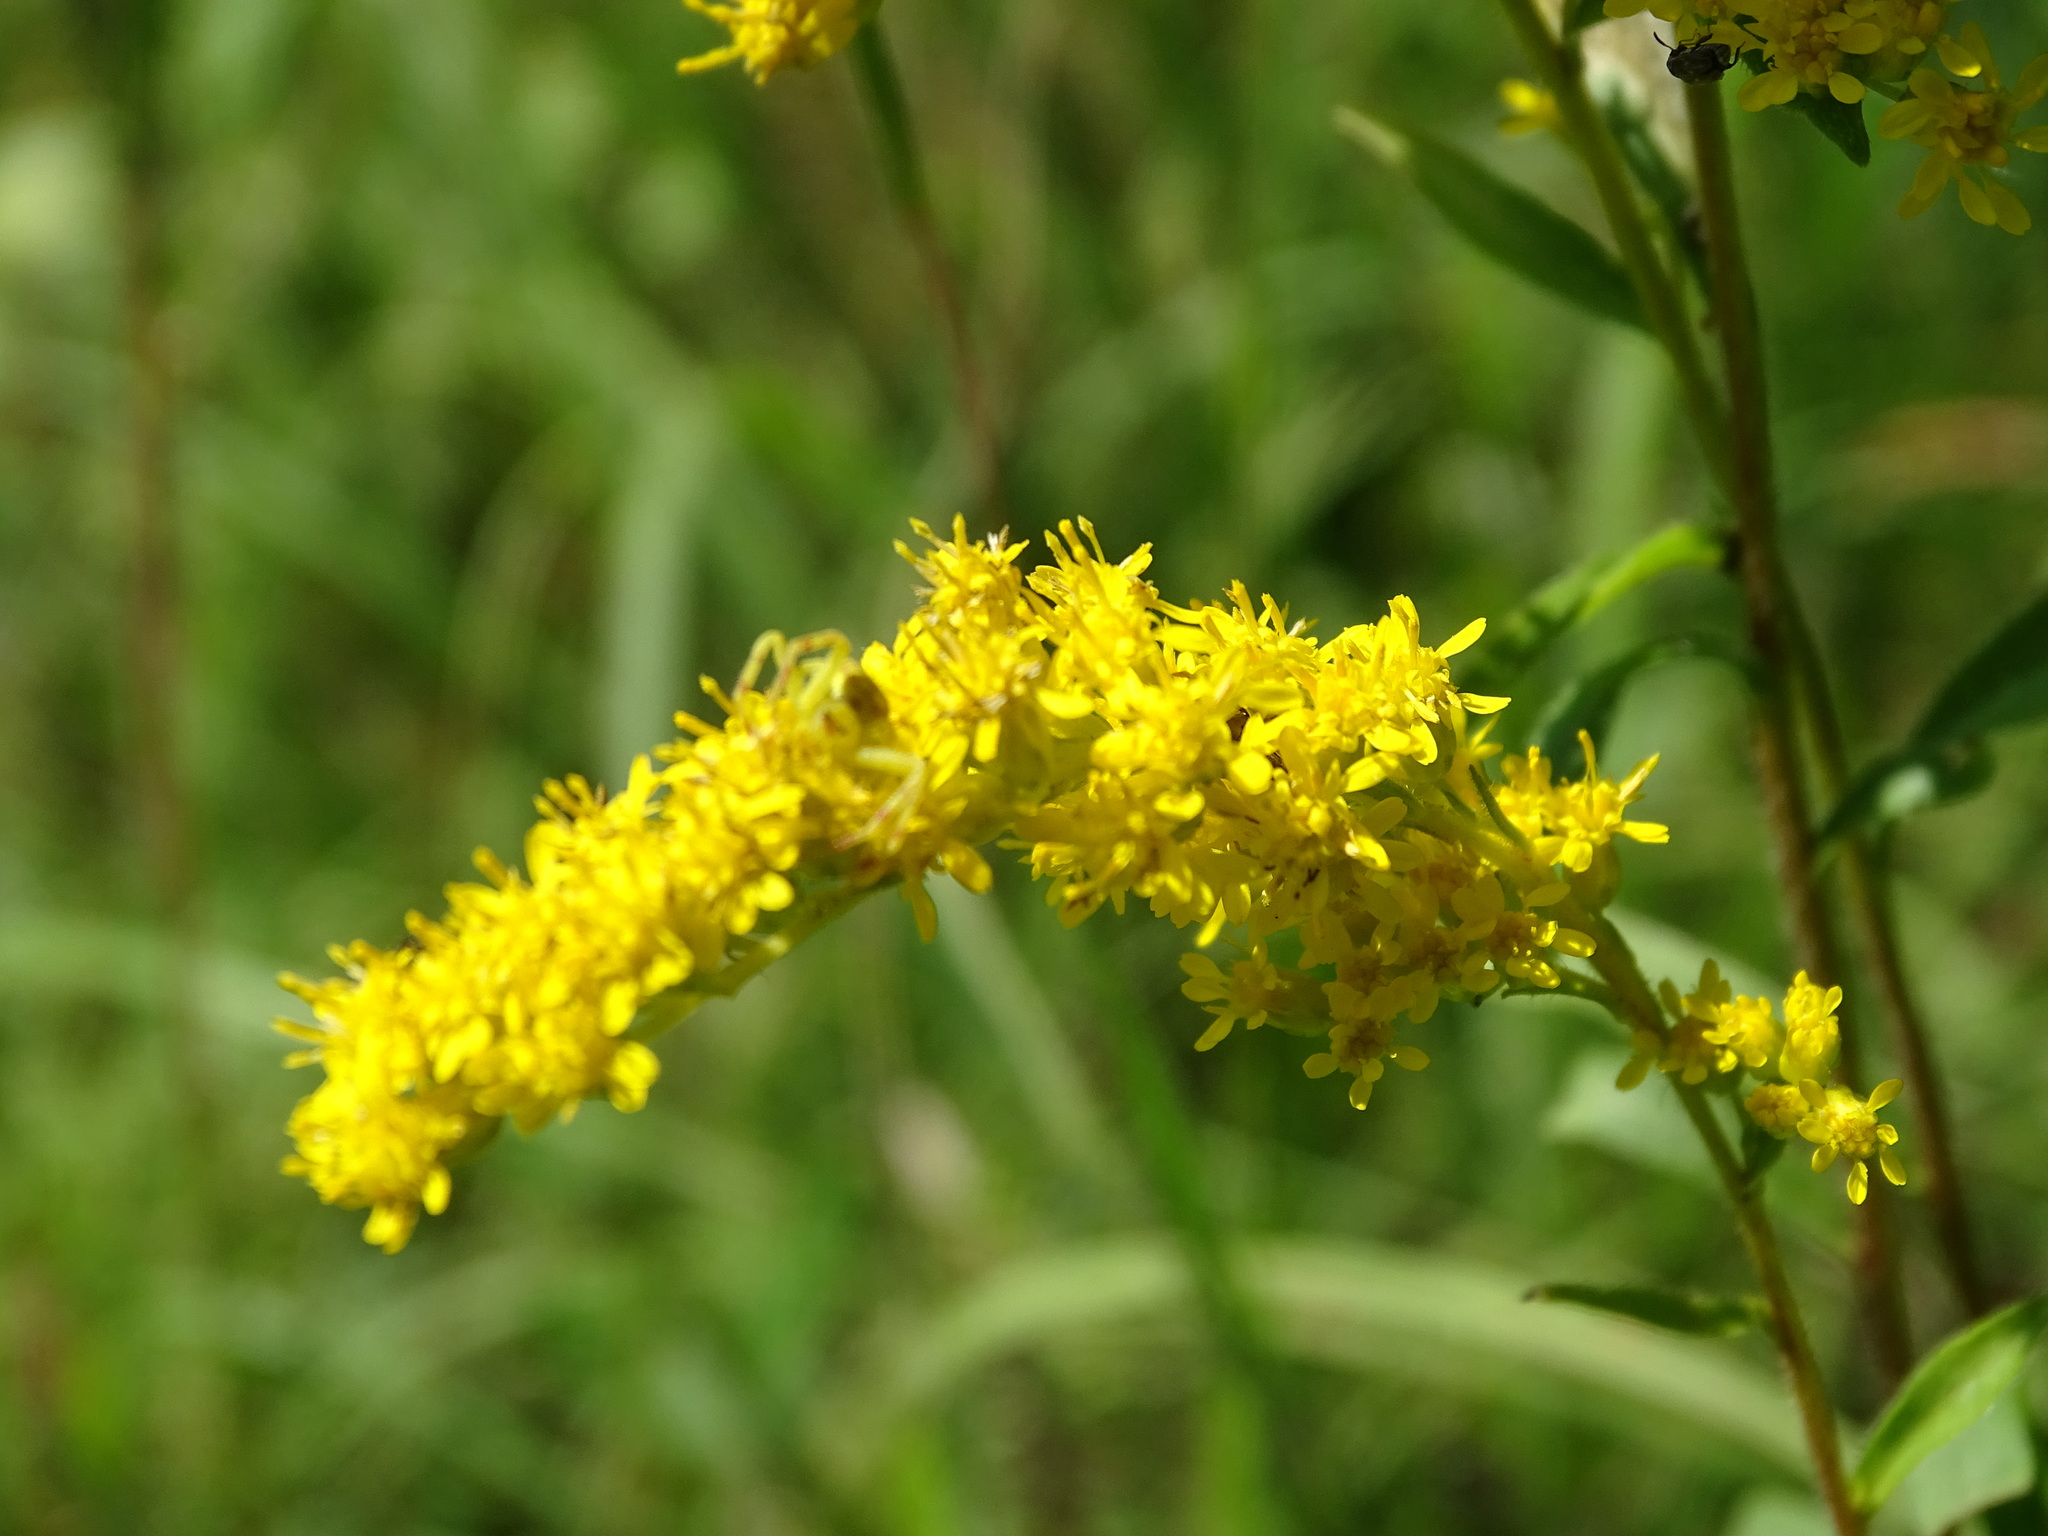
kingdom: Plantae
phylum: Tracheophyta
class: Magnoliopsida
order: Asterales
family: Asteraceae
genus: Solidago
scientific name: Solidago juncea
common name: Early goldenrod
